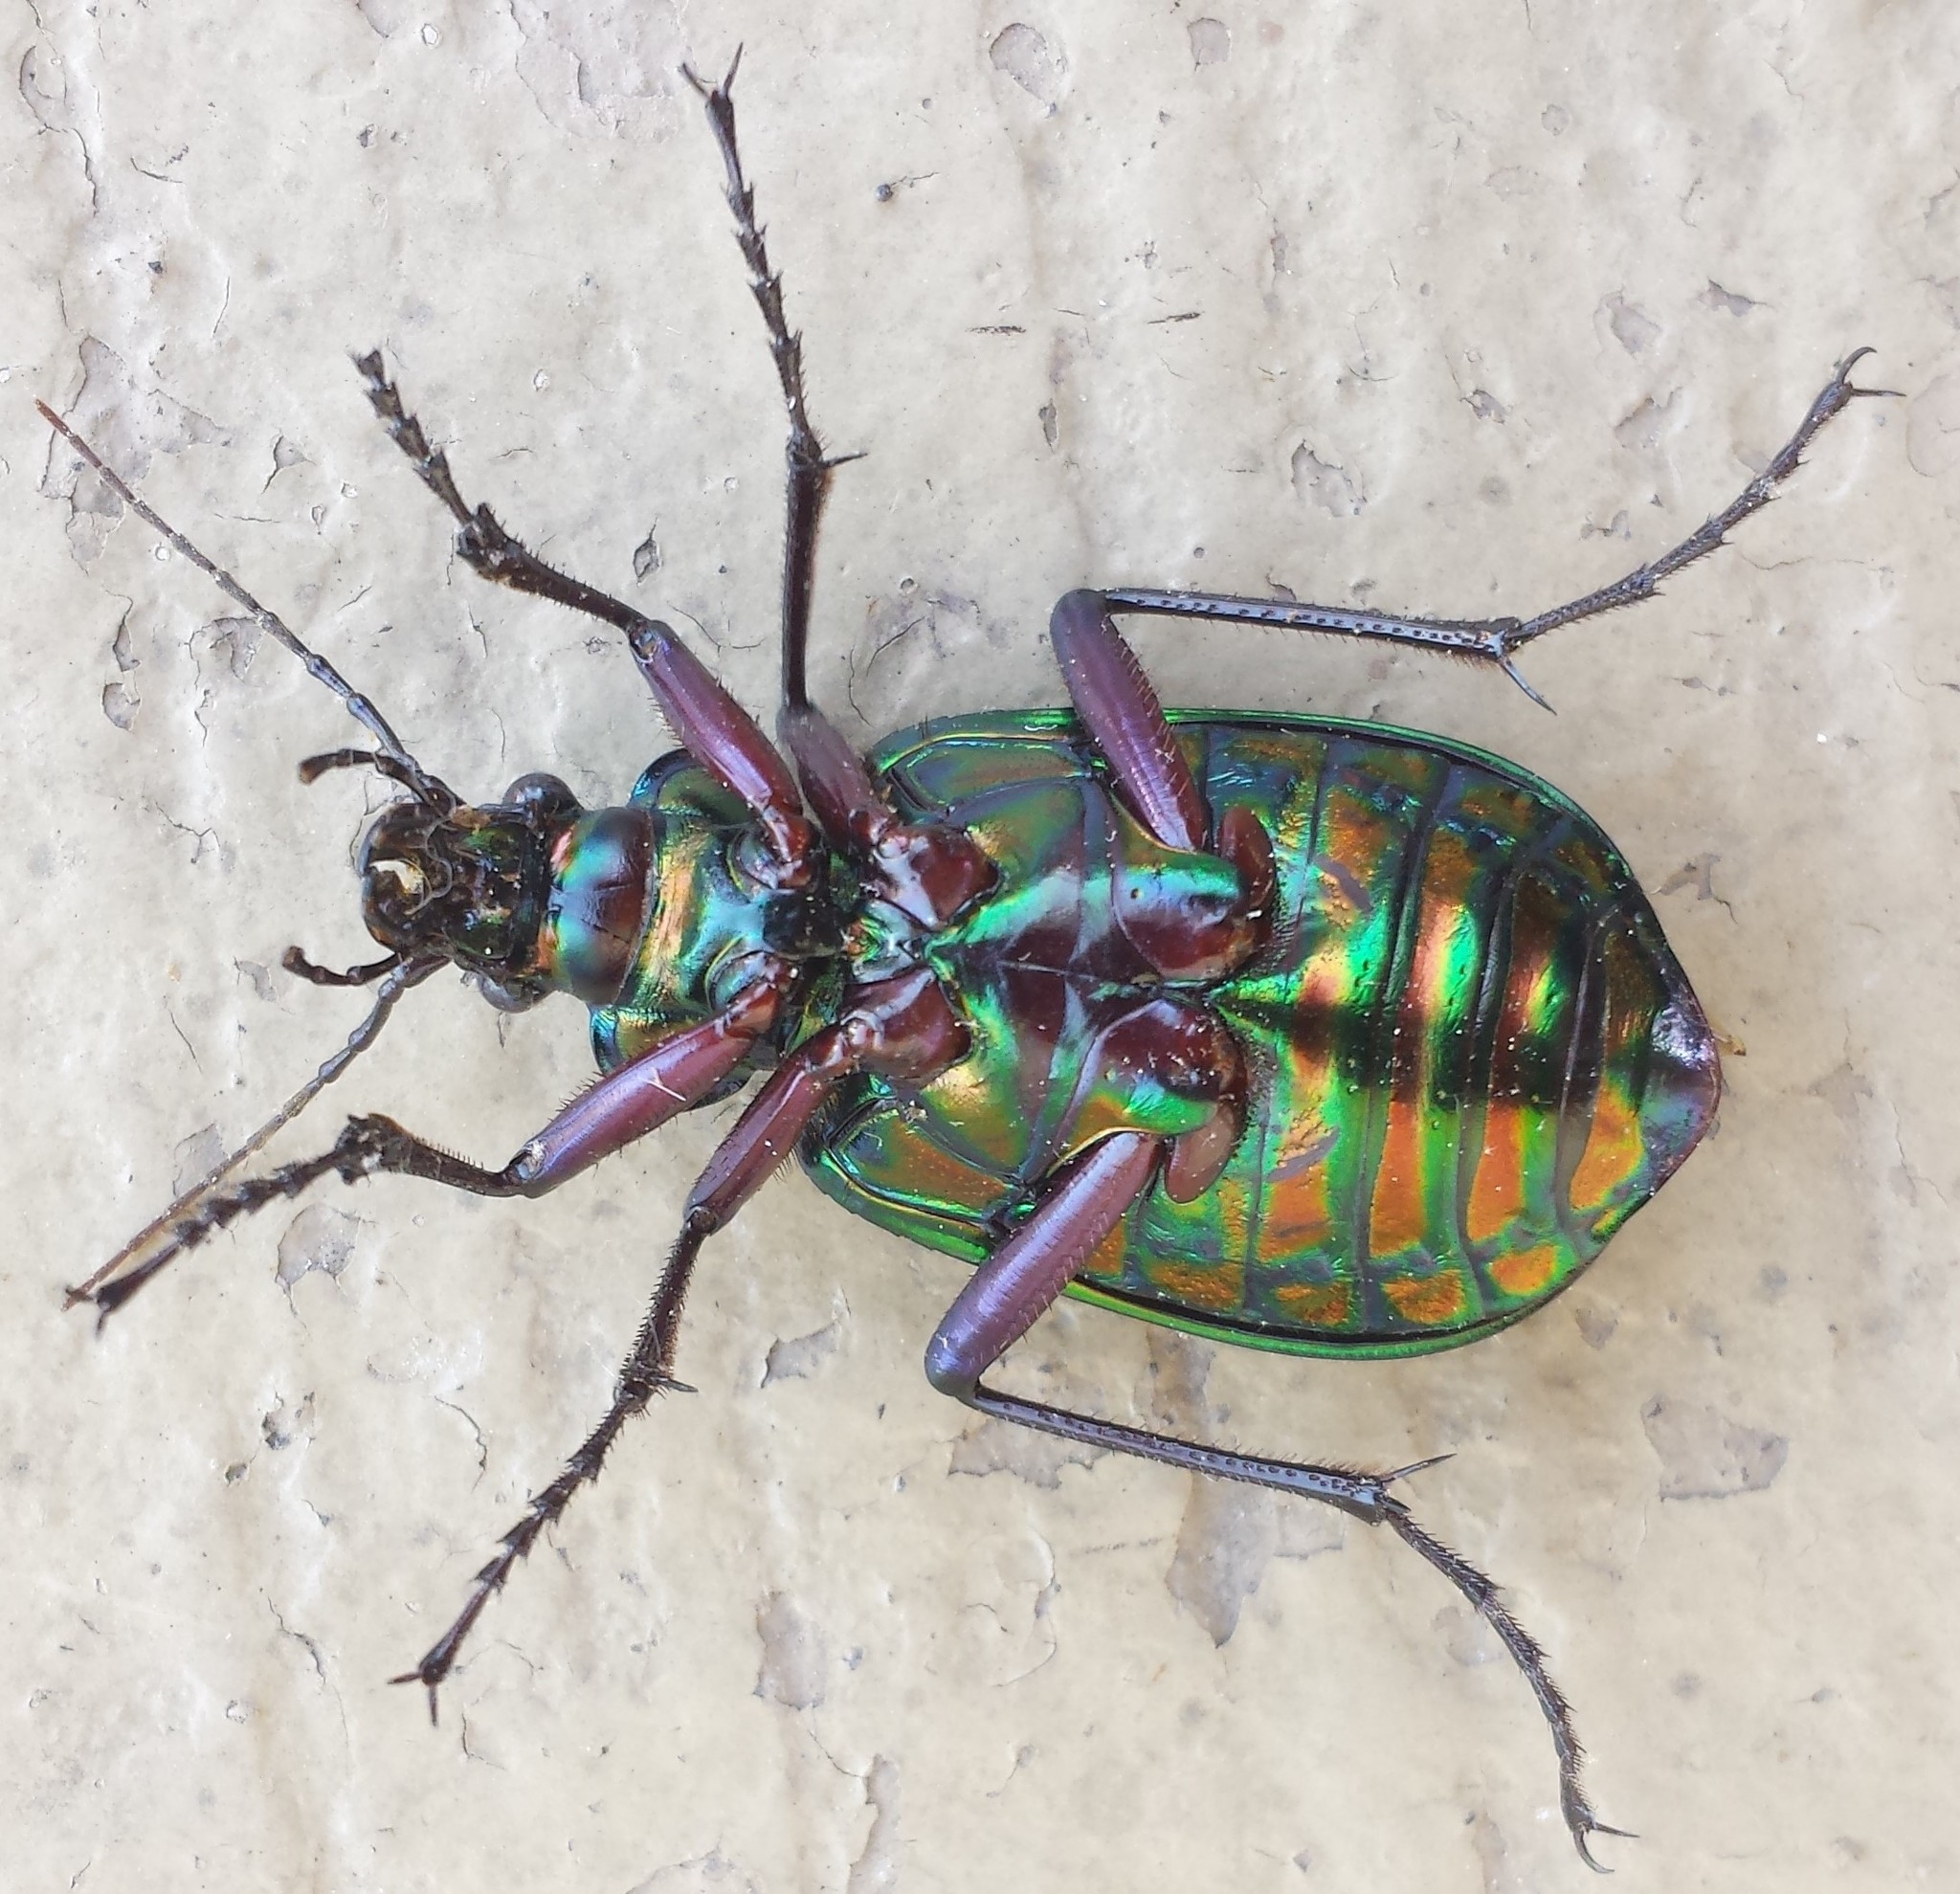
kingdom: Animalia
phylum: Arthropoda
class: Insecta
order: Coleoptera
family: Carabidae
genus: Calosoma
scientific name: Calosoma scrutator
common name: Fiery searcher beetle
